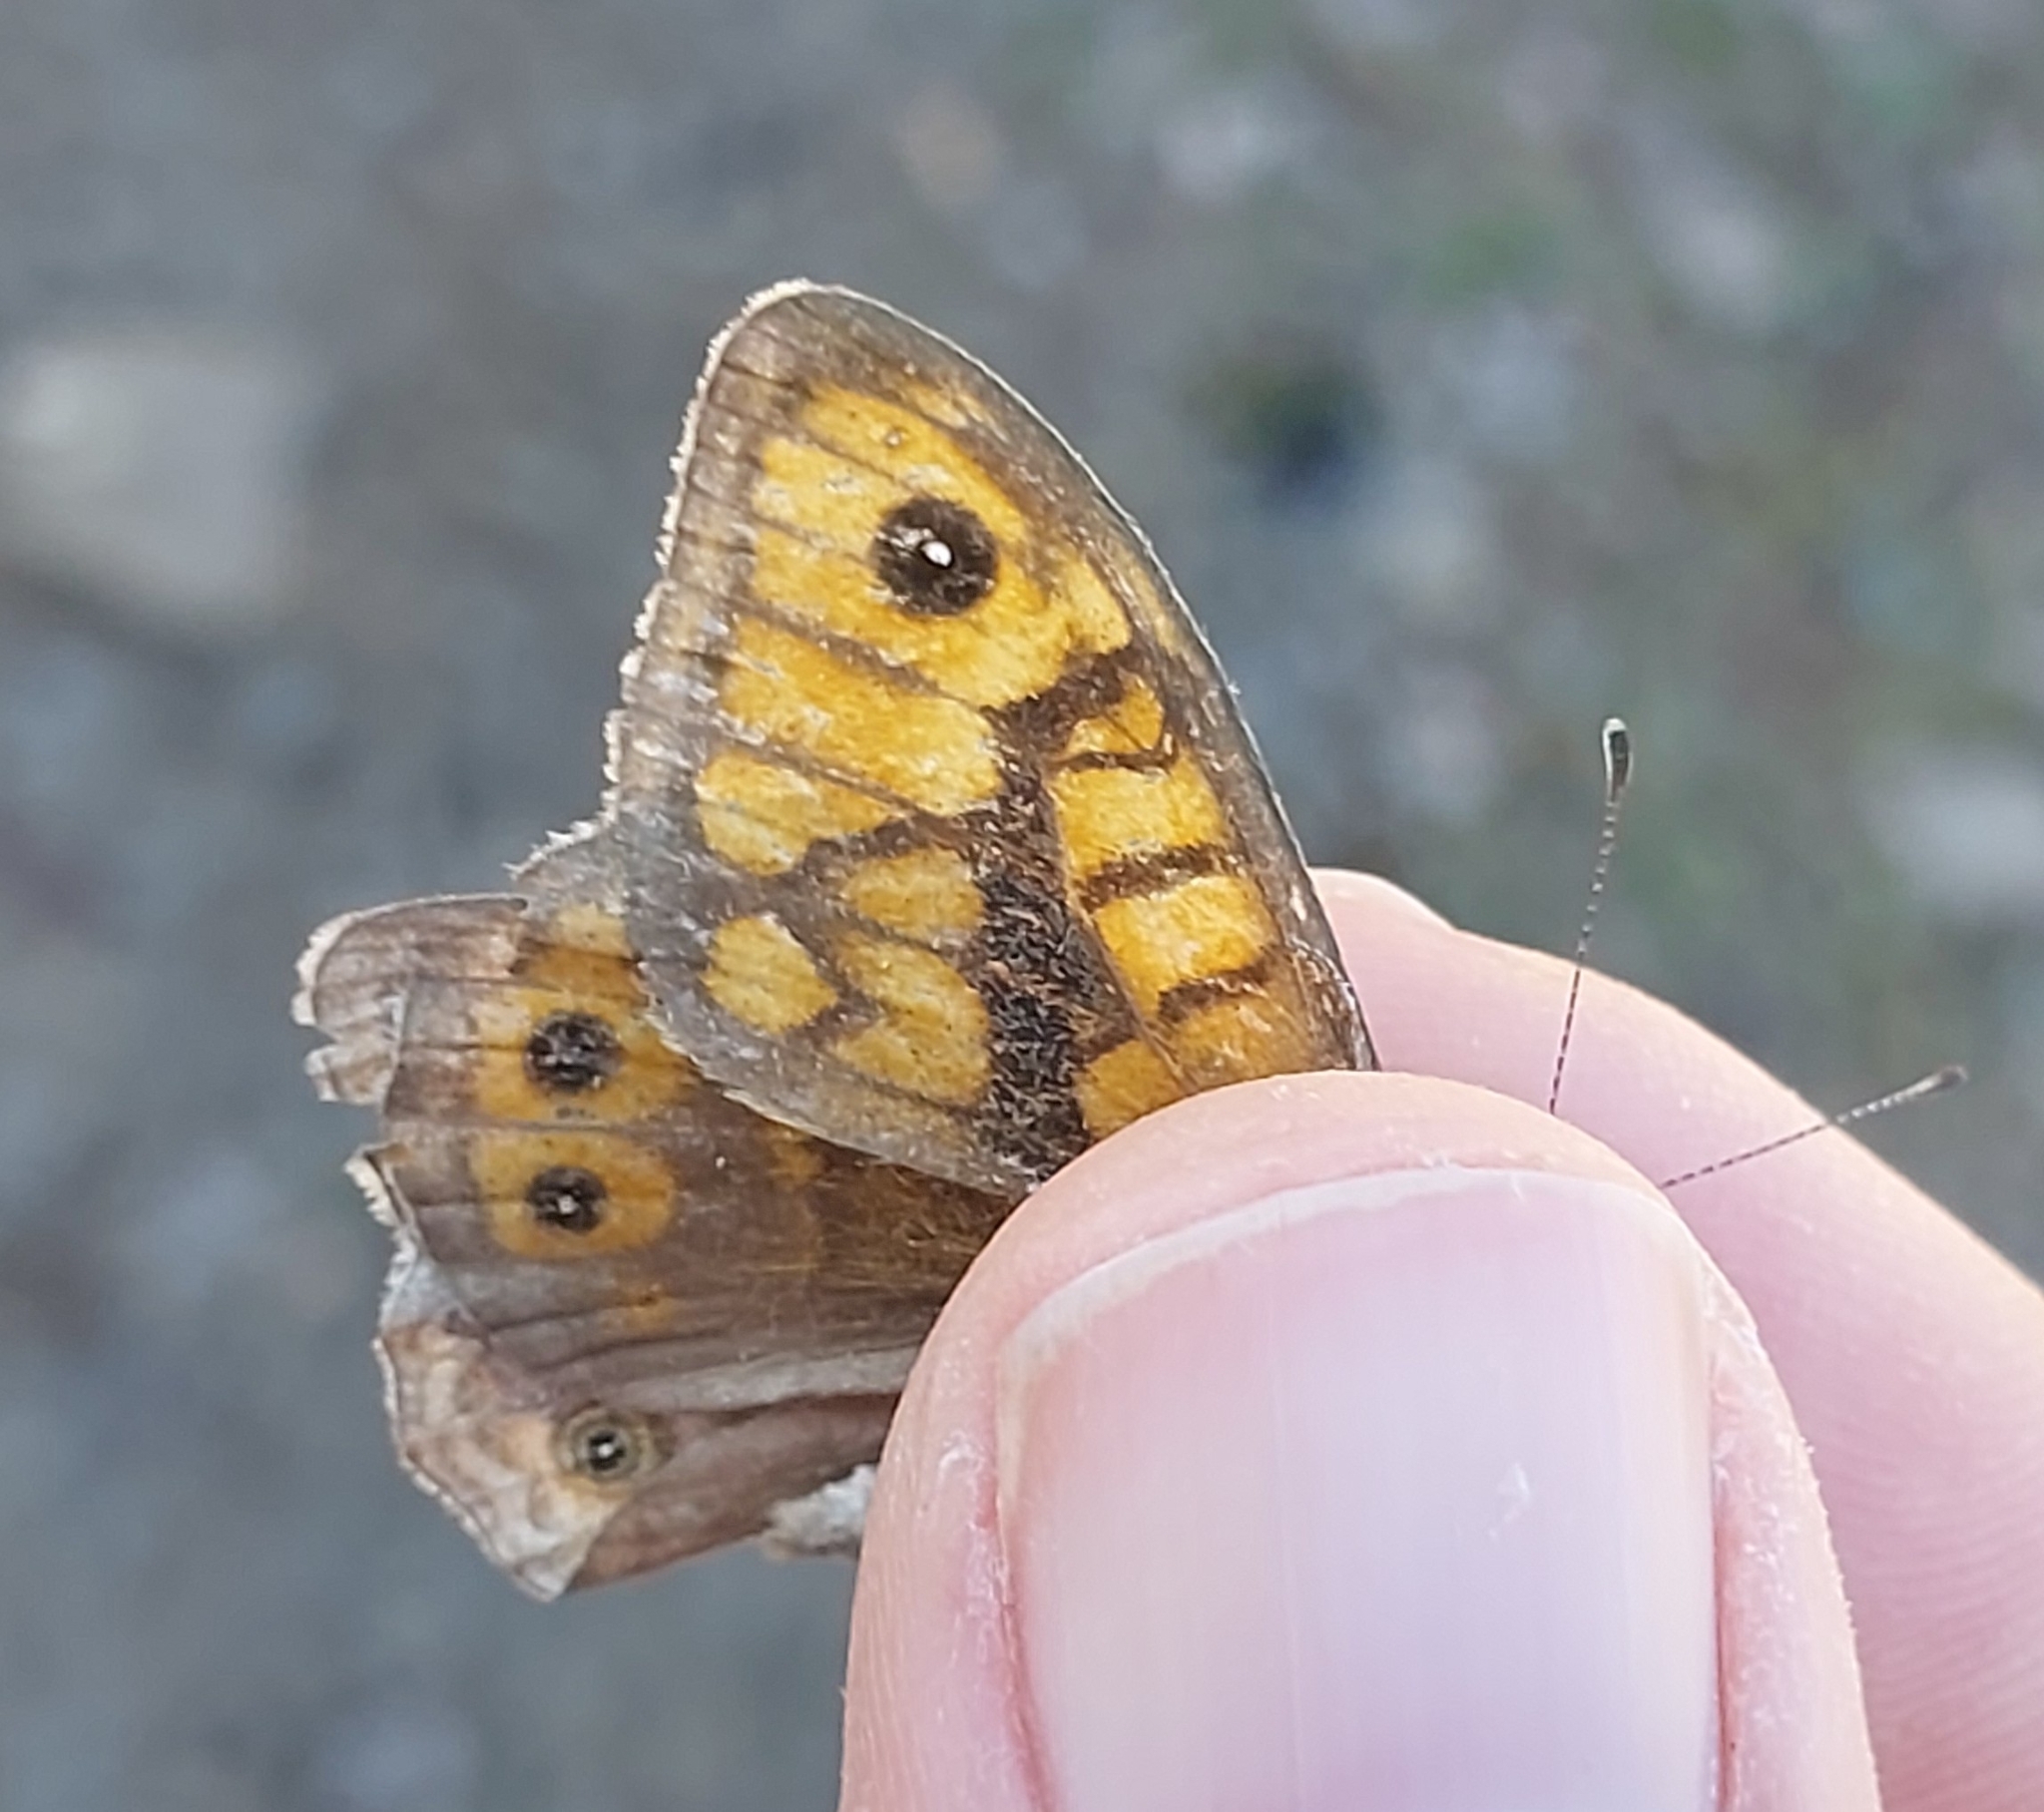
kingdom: Animalia
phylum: Arthropoda
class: Insecta
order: Lepidoptera
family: Nymphalidae
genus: Pararge
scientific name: Pararge Lasiommata megera
